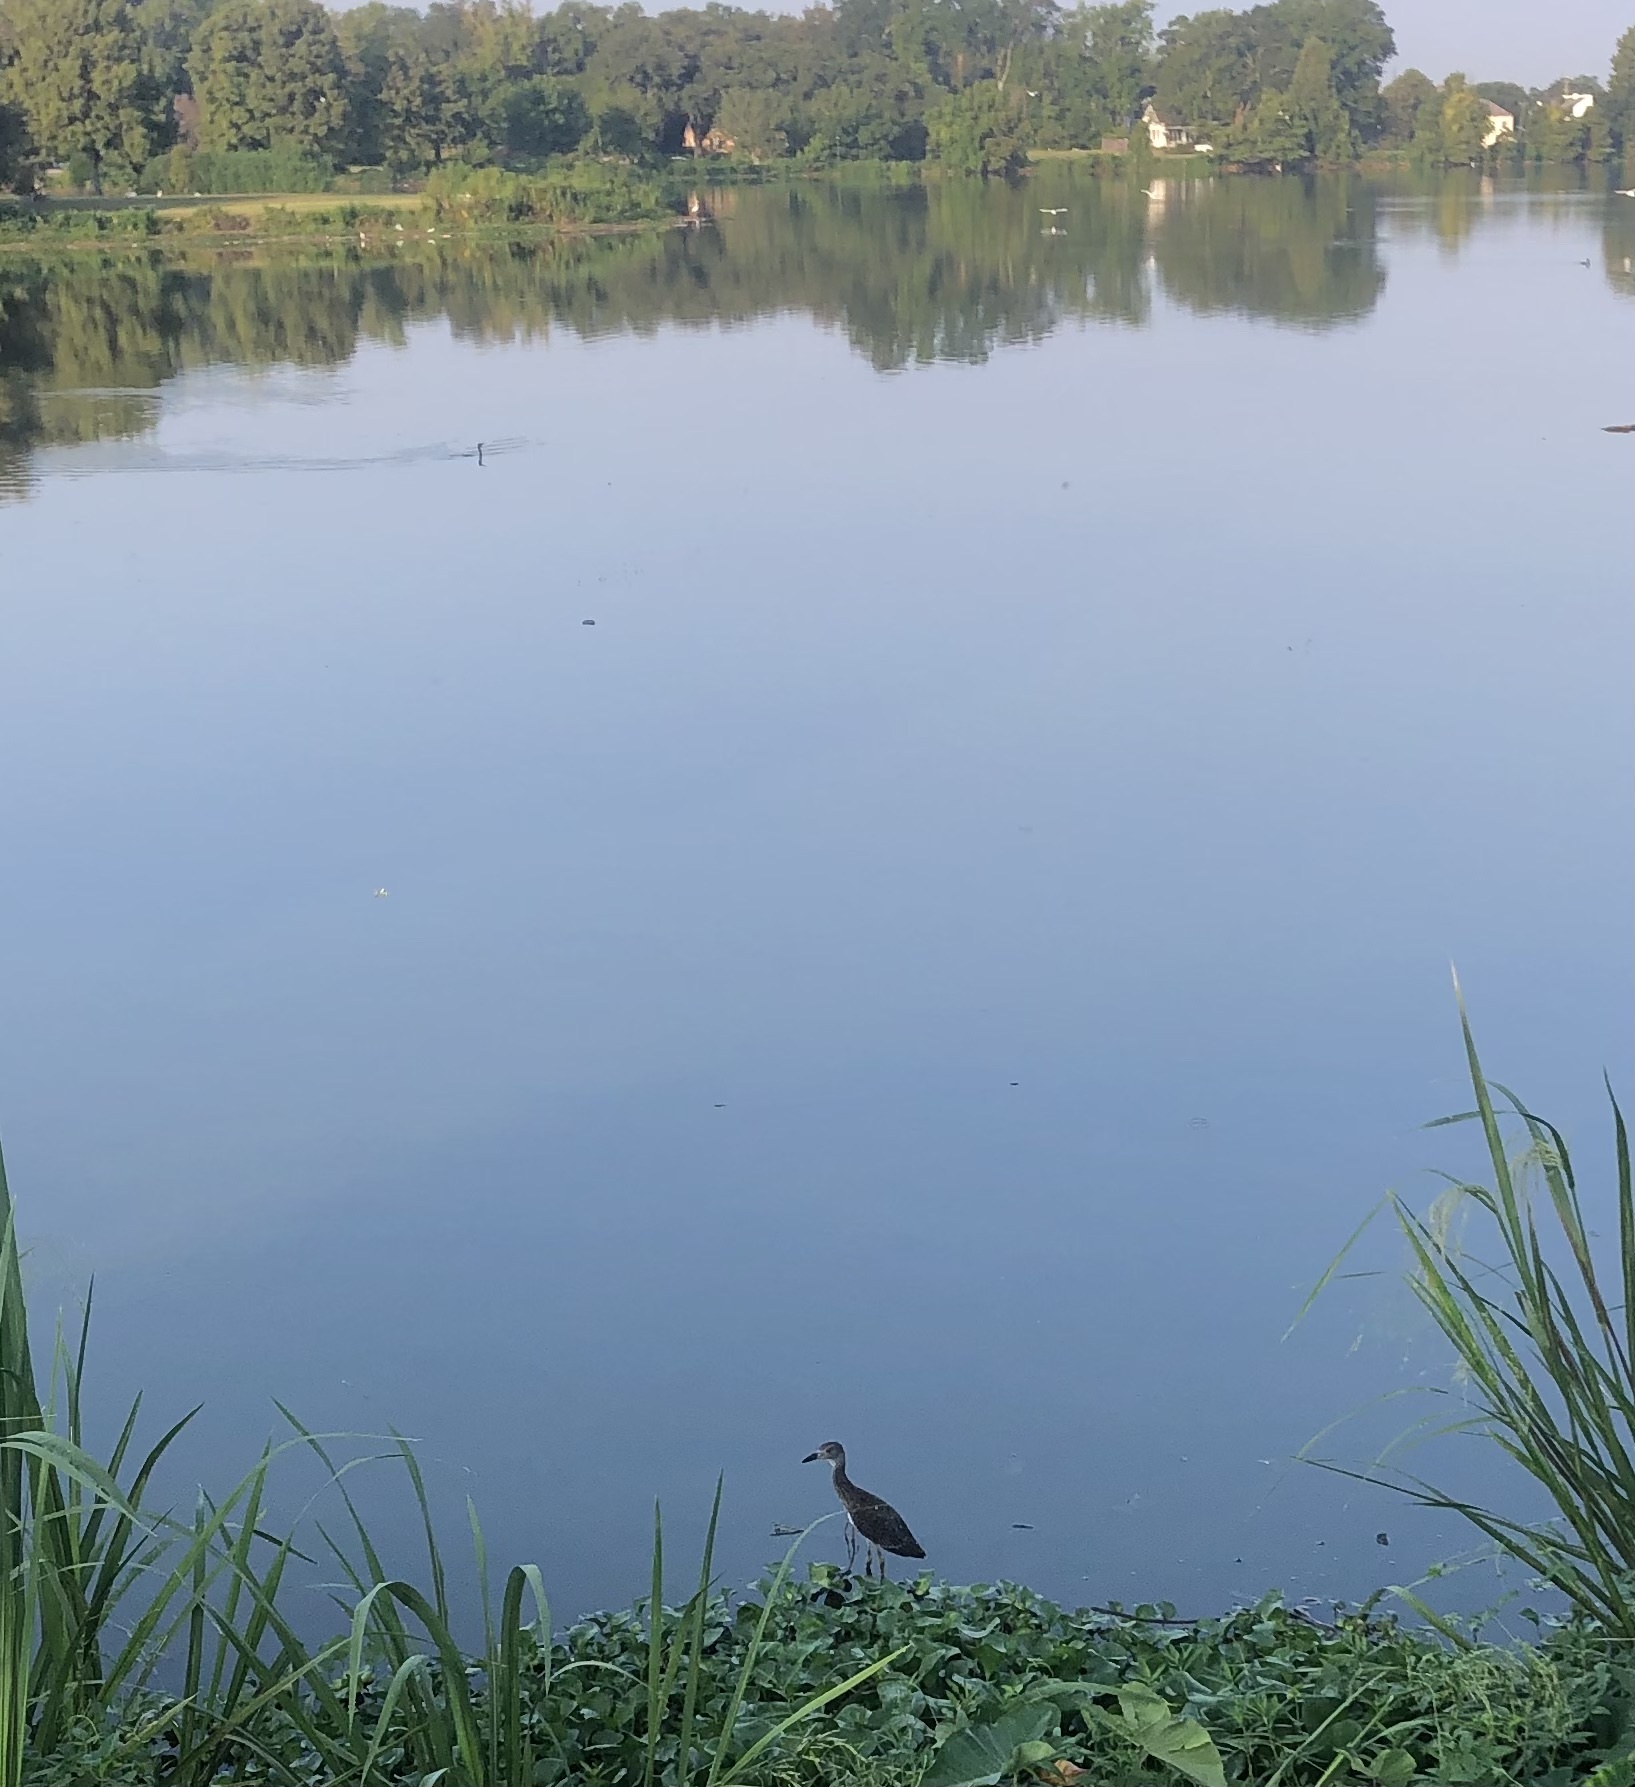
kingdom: Animalia
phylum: Chordata
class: Aves
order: Pelecaniformes
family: Ardeidae
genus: Nyctanassa
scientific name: Nyctanassa violacea
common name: Yellow-crowned night heron
